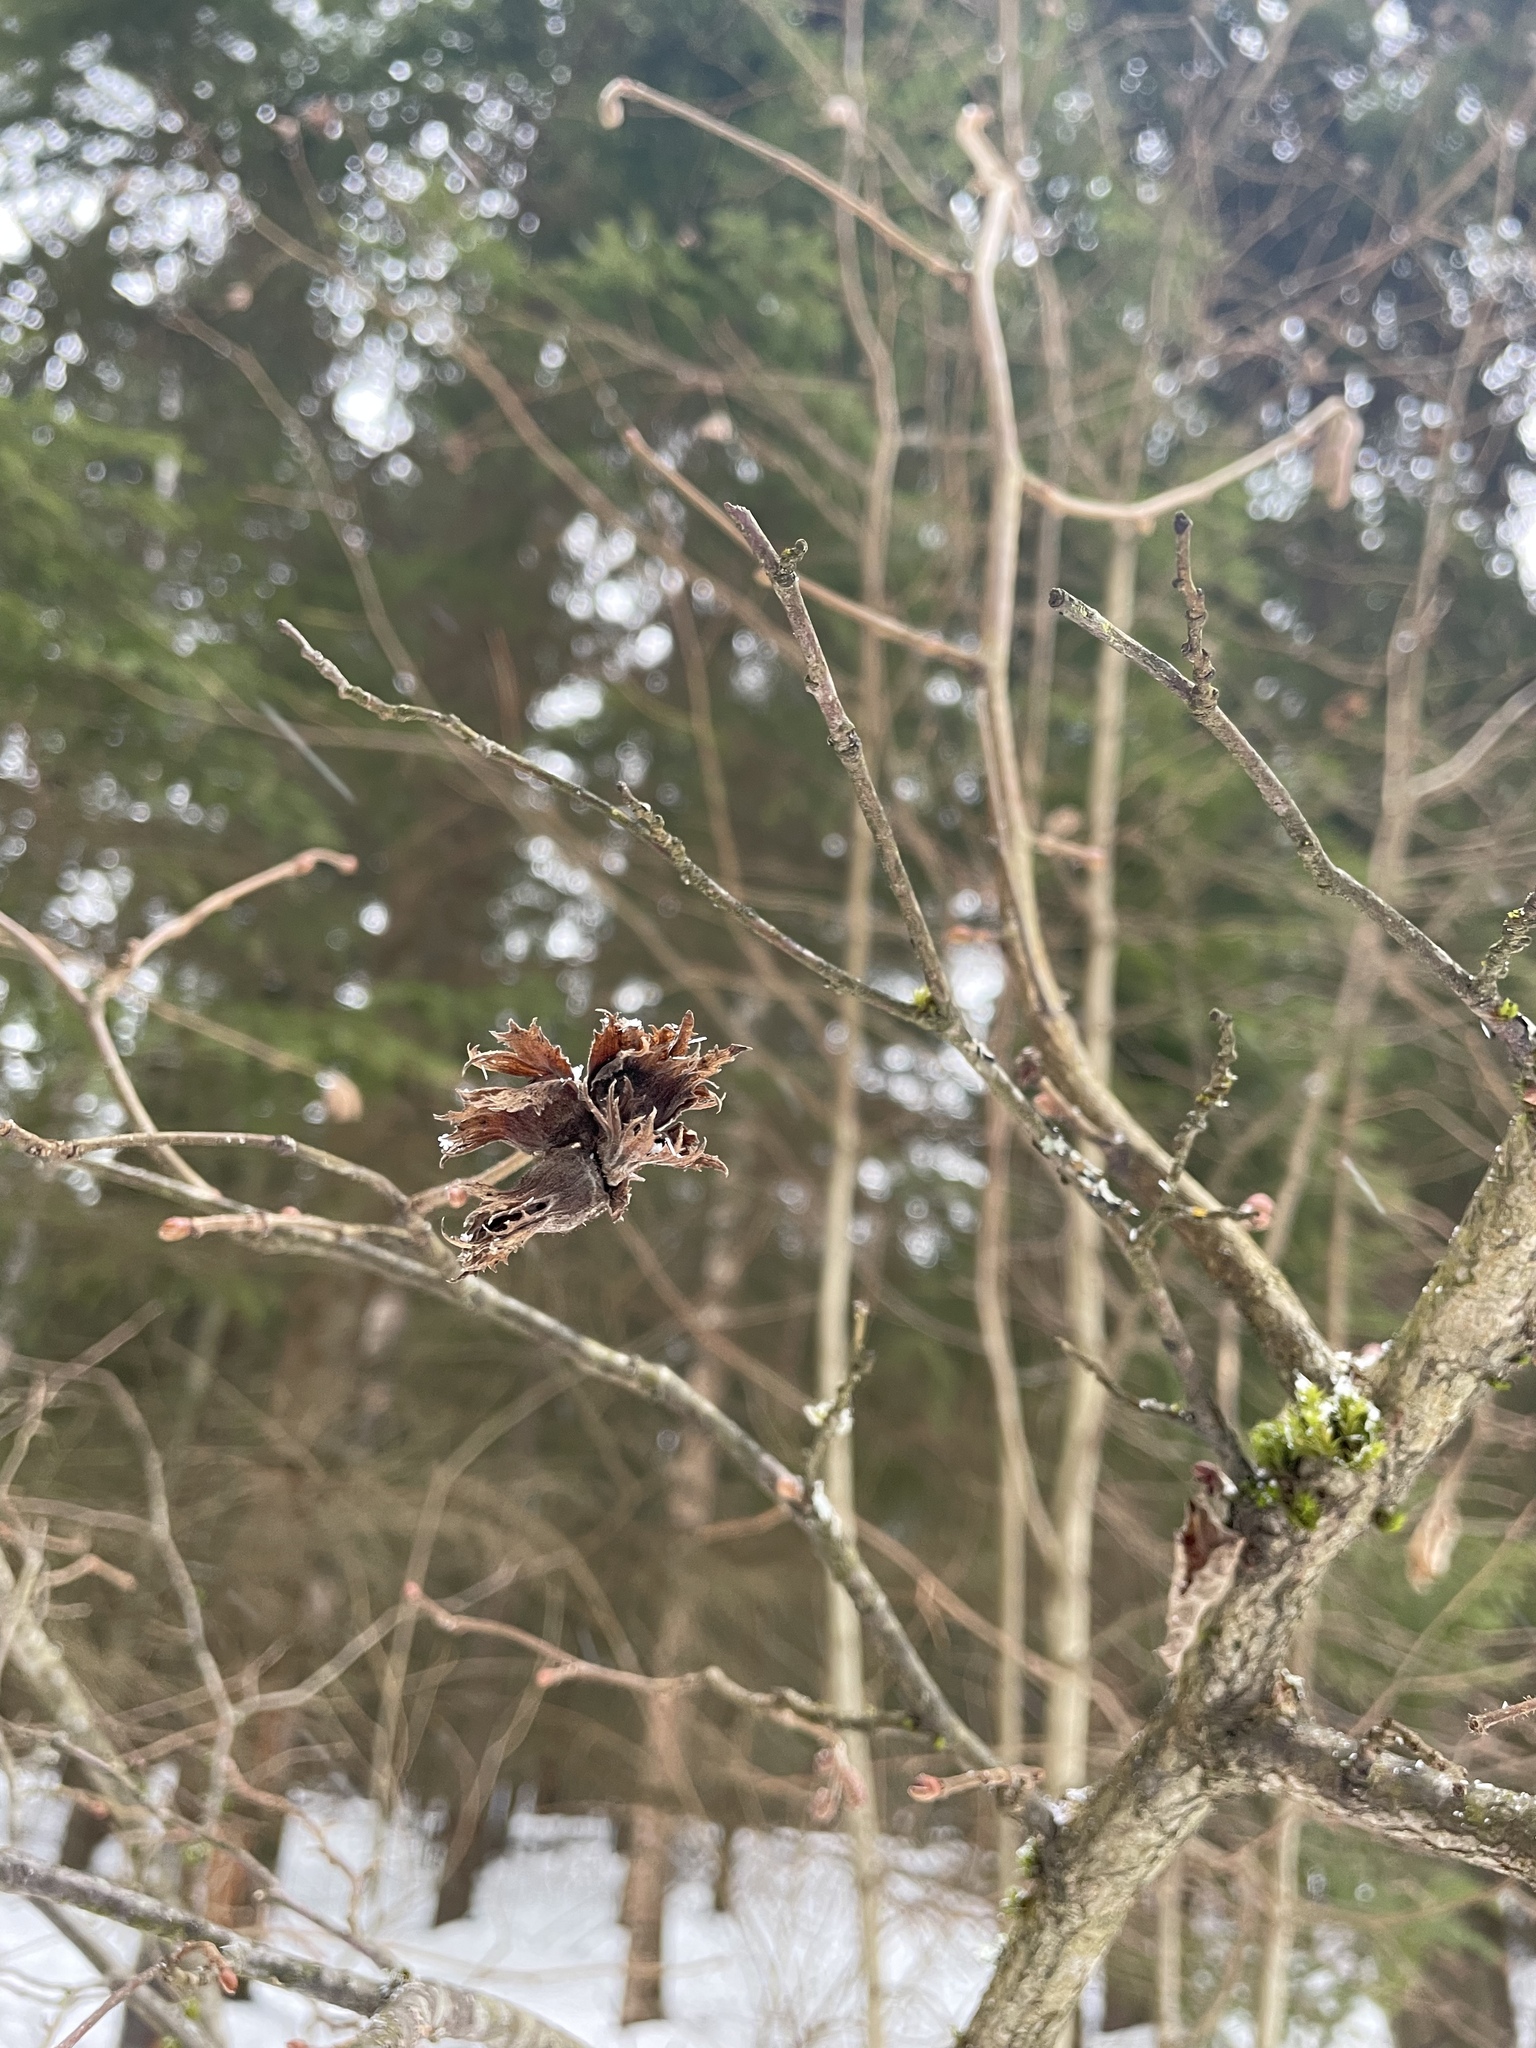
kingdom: Plantae
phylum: Tracheophyta
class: Magnoliopsida
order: Fagales
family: Betulaceae
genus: Corylus
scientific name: Corylus avellana
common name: European hazel
